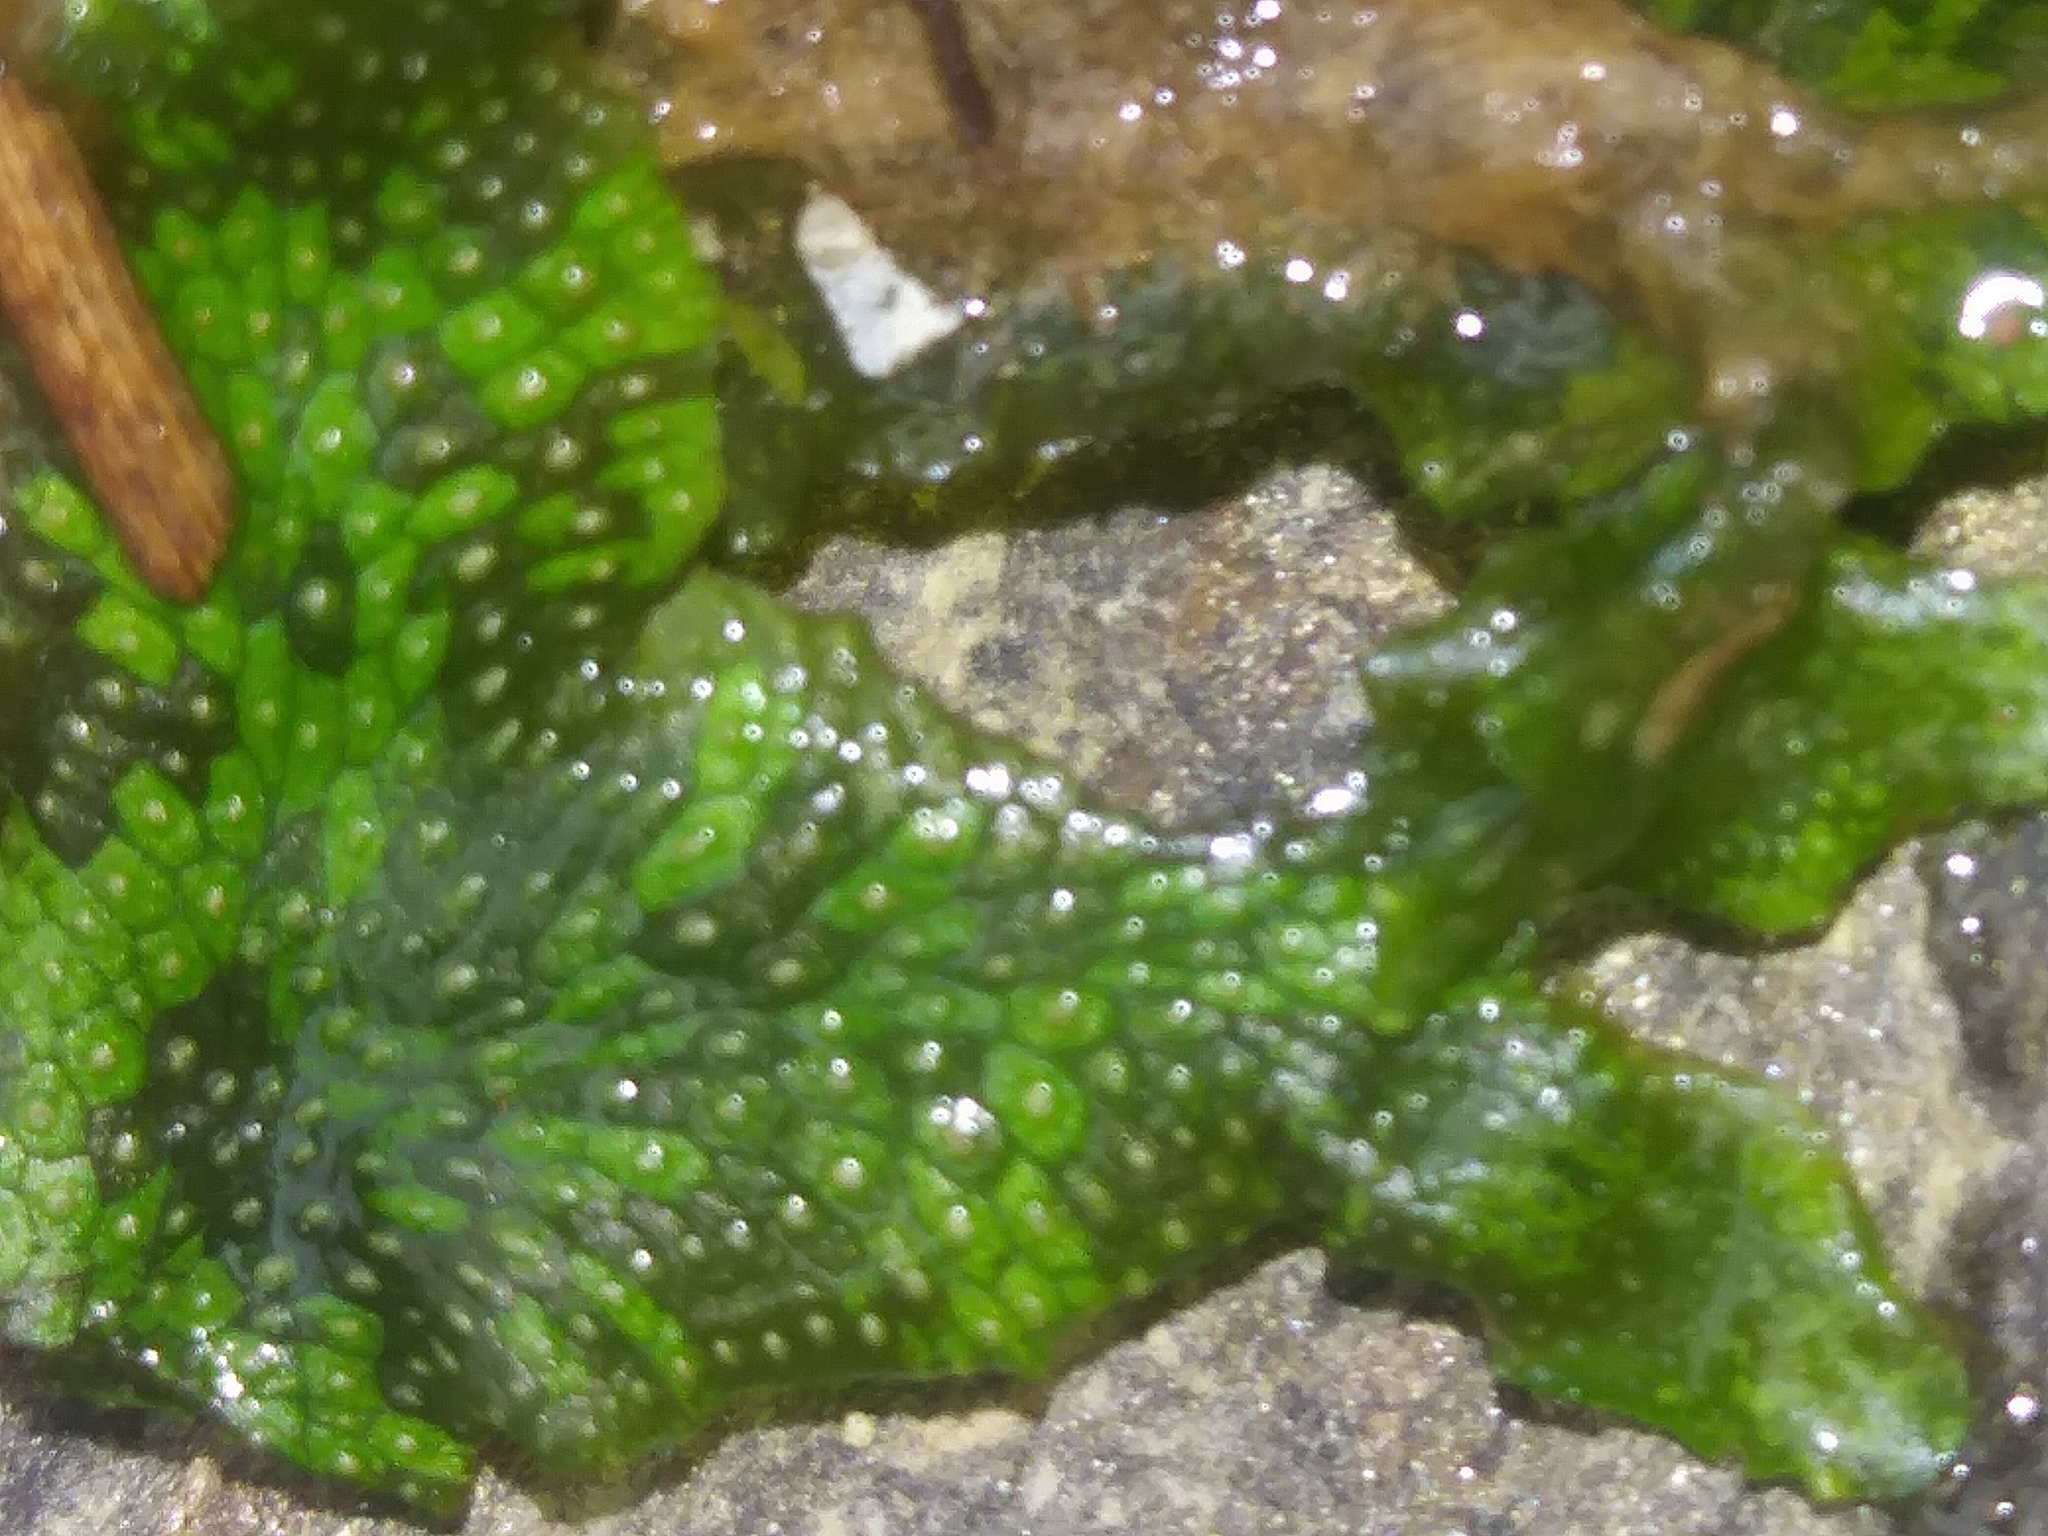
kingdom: Plantae
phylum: Marchantiophyta
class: Marchantiopsida
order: Marchantiales
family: Conocephalaceae
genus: Conocephalum
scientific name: Conocephalum salebrosum
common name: Cat-tongue liverwort
